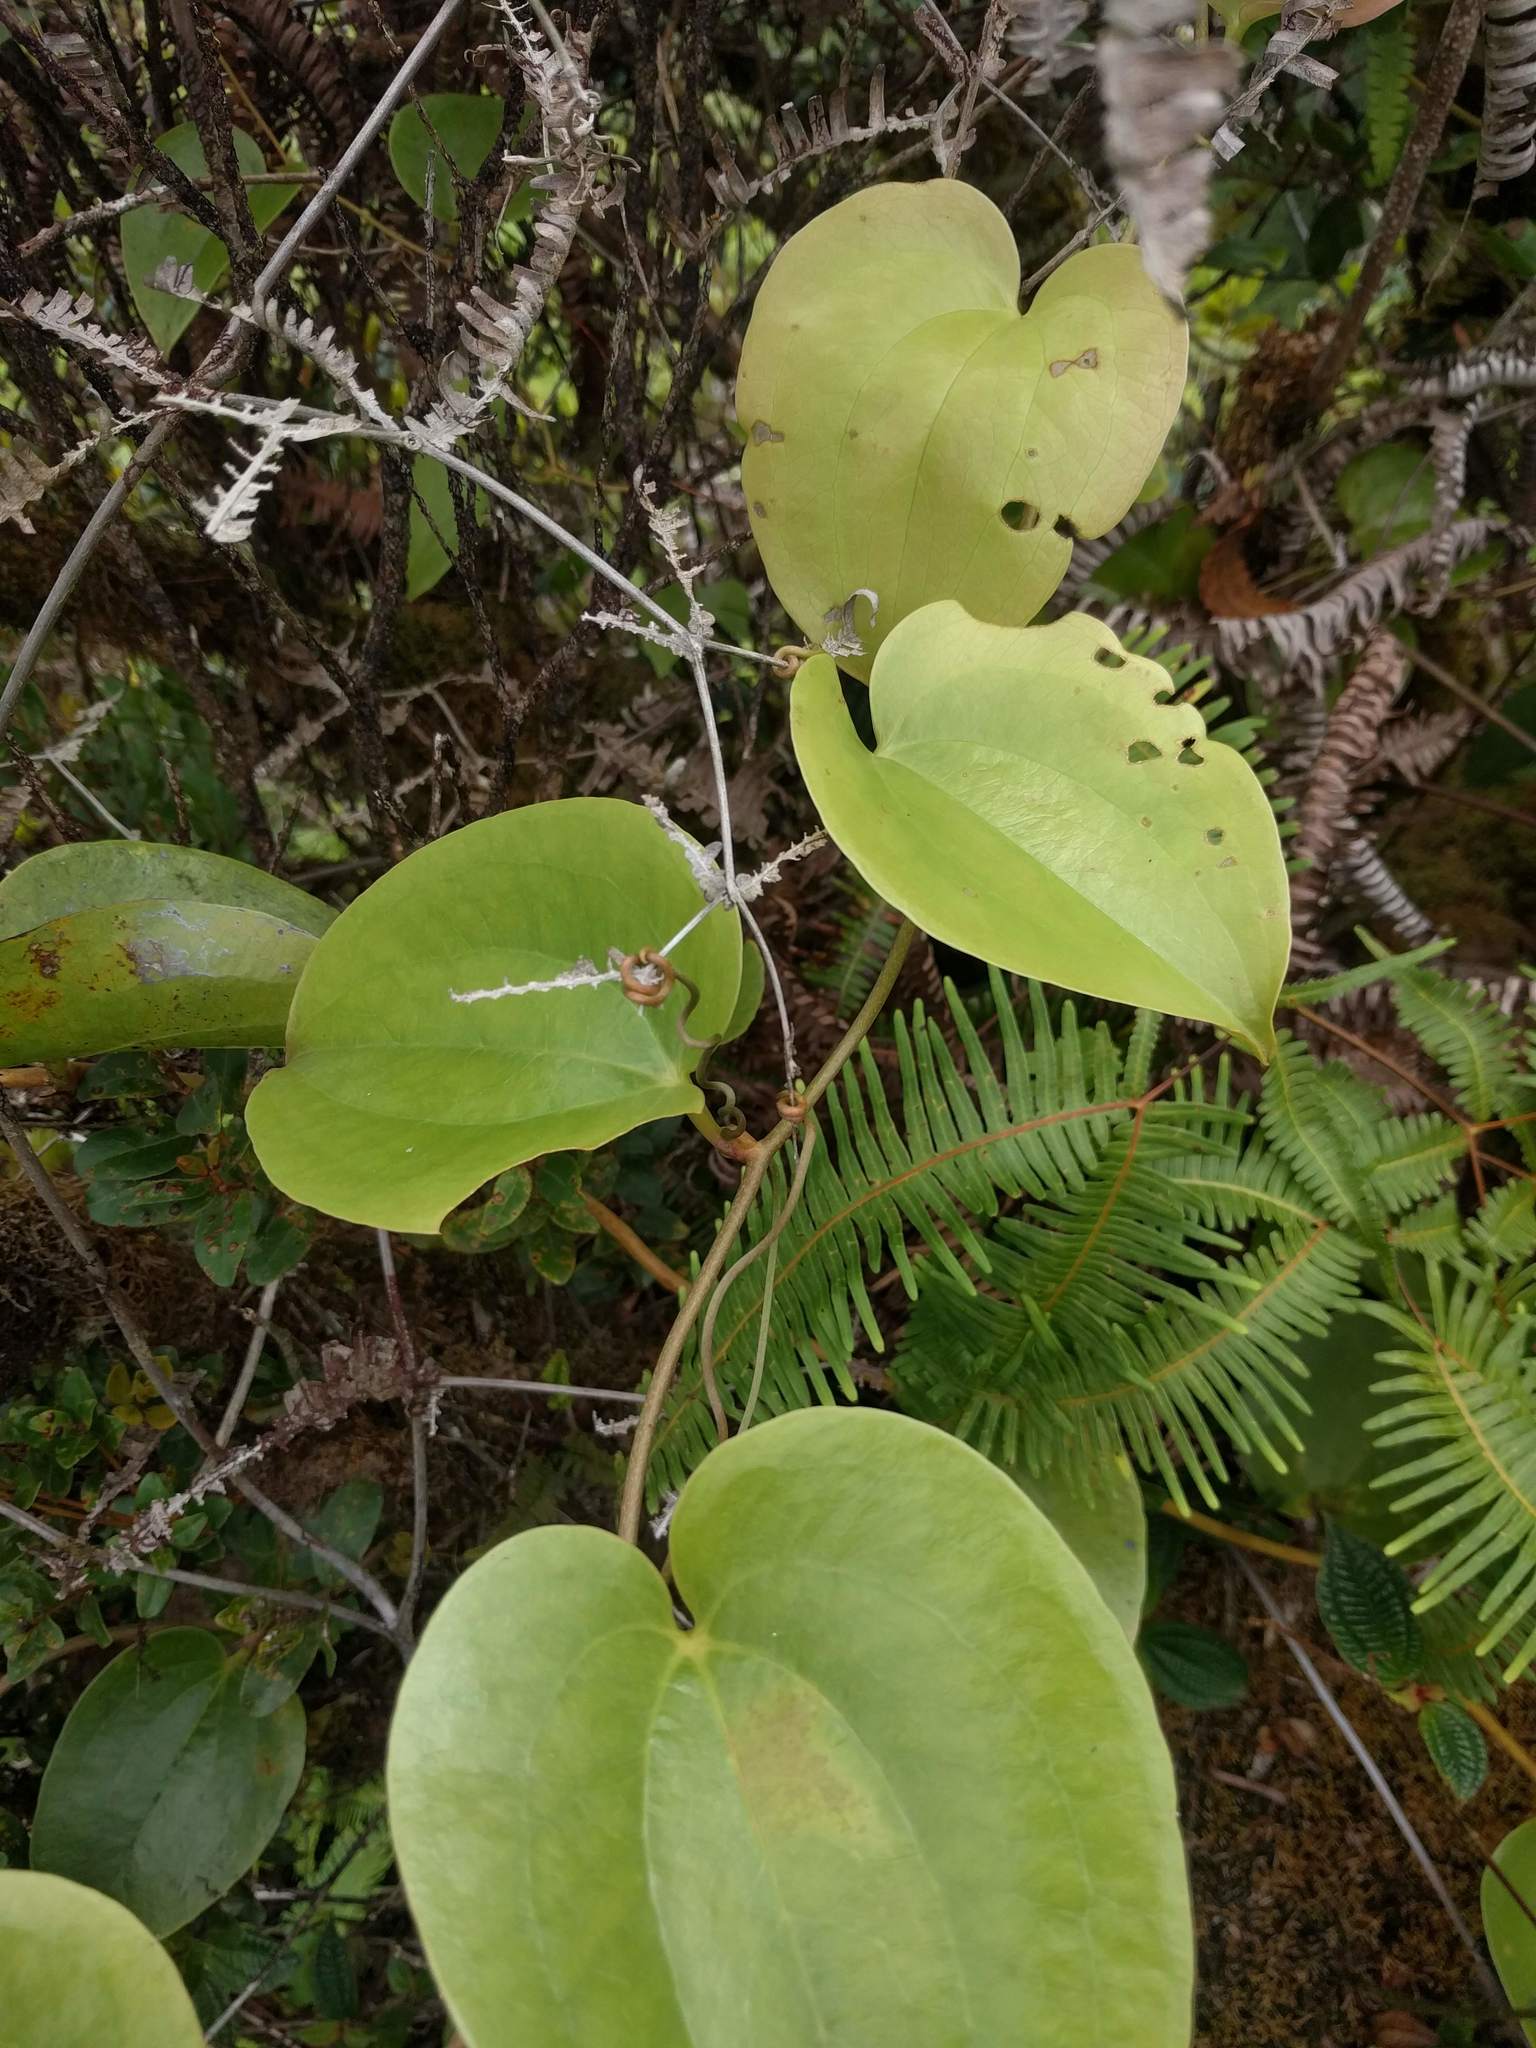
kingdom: Plantae
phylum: Tracheophyta
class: Liliopsida
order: Liliales
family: Smilacaceae
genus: Smilax
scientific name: Smilax melastomifolia
